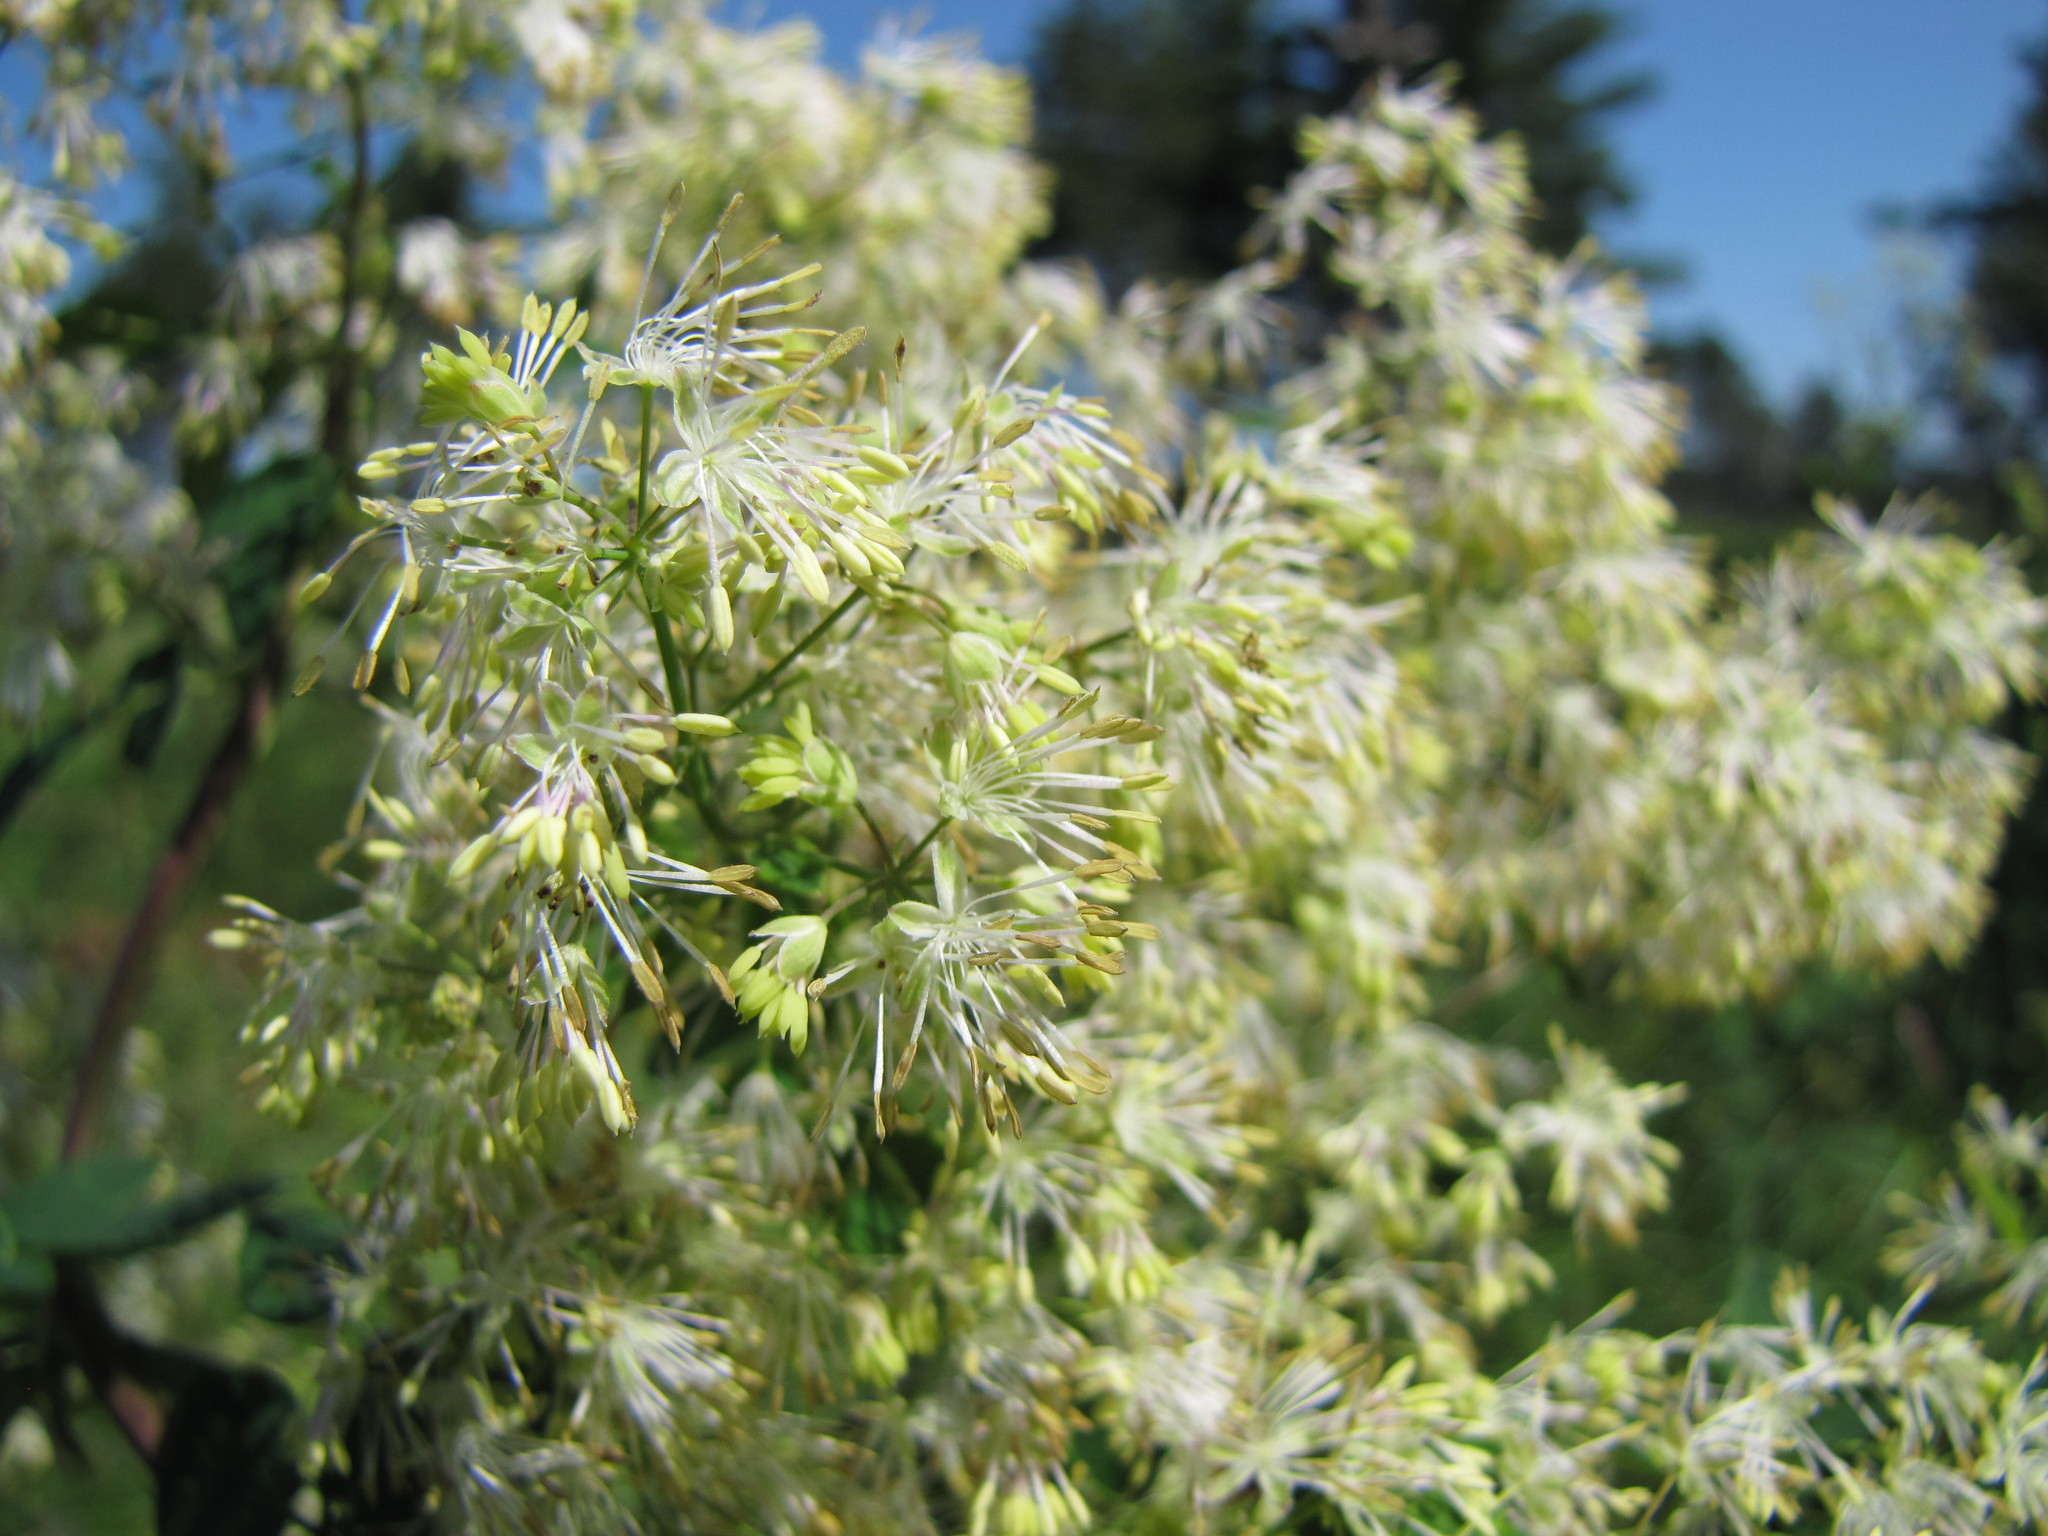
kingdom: Plantae
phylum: Tracheophyta
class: Magnoliopsida
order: Ranunculales
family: Ranunculaceae
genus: Thalictrum
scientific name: Thalictrum dasycarpum
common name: Purple meadow-rue
